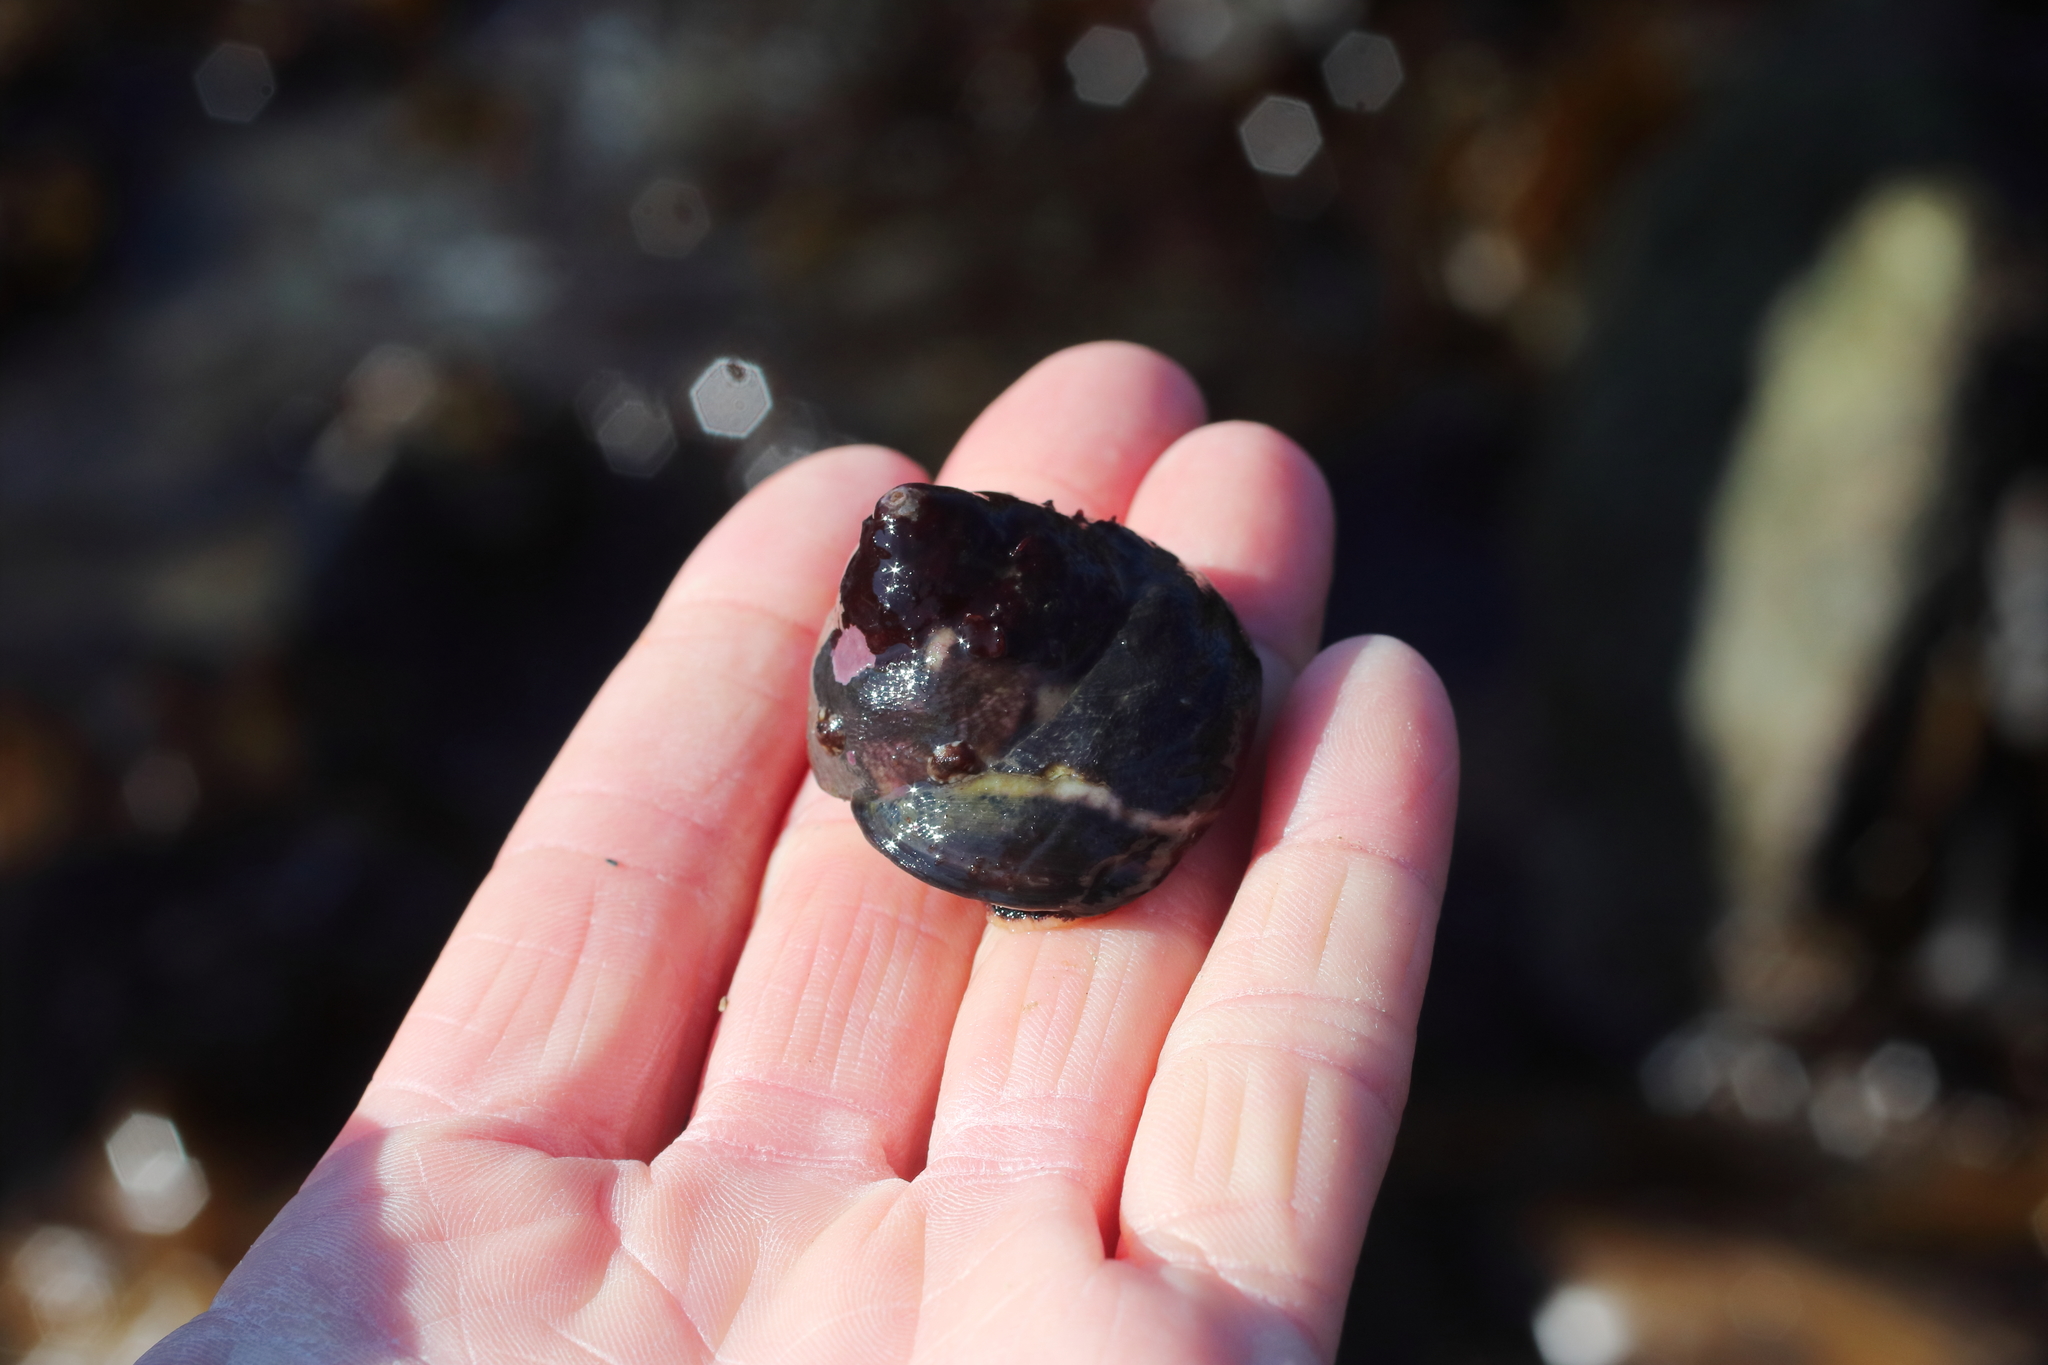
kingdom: Animalia
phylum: Mollusca
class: Gastropoda
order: Trochida
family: Tegulidae
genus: Tegula
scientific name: Tegula pulligo
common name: Brown turban
